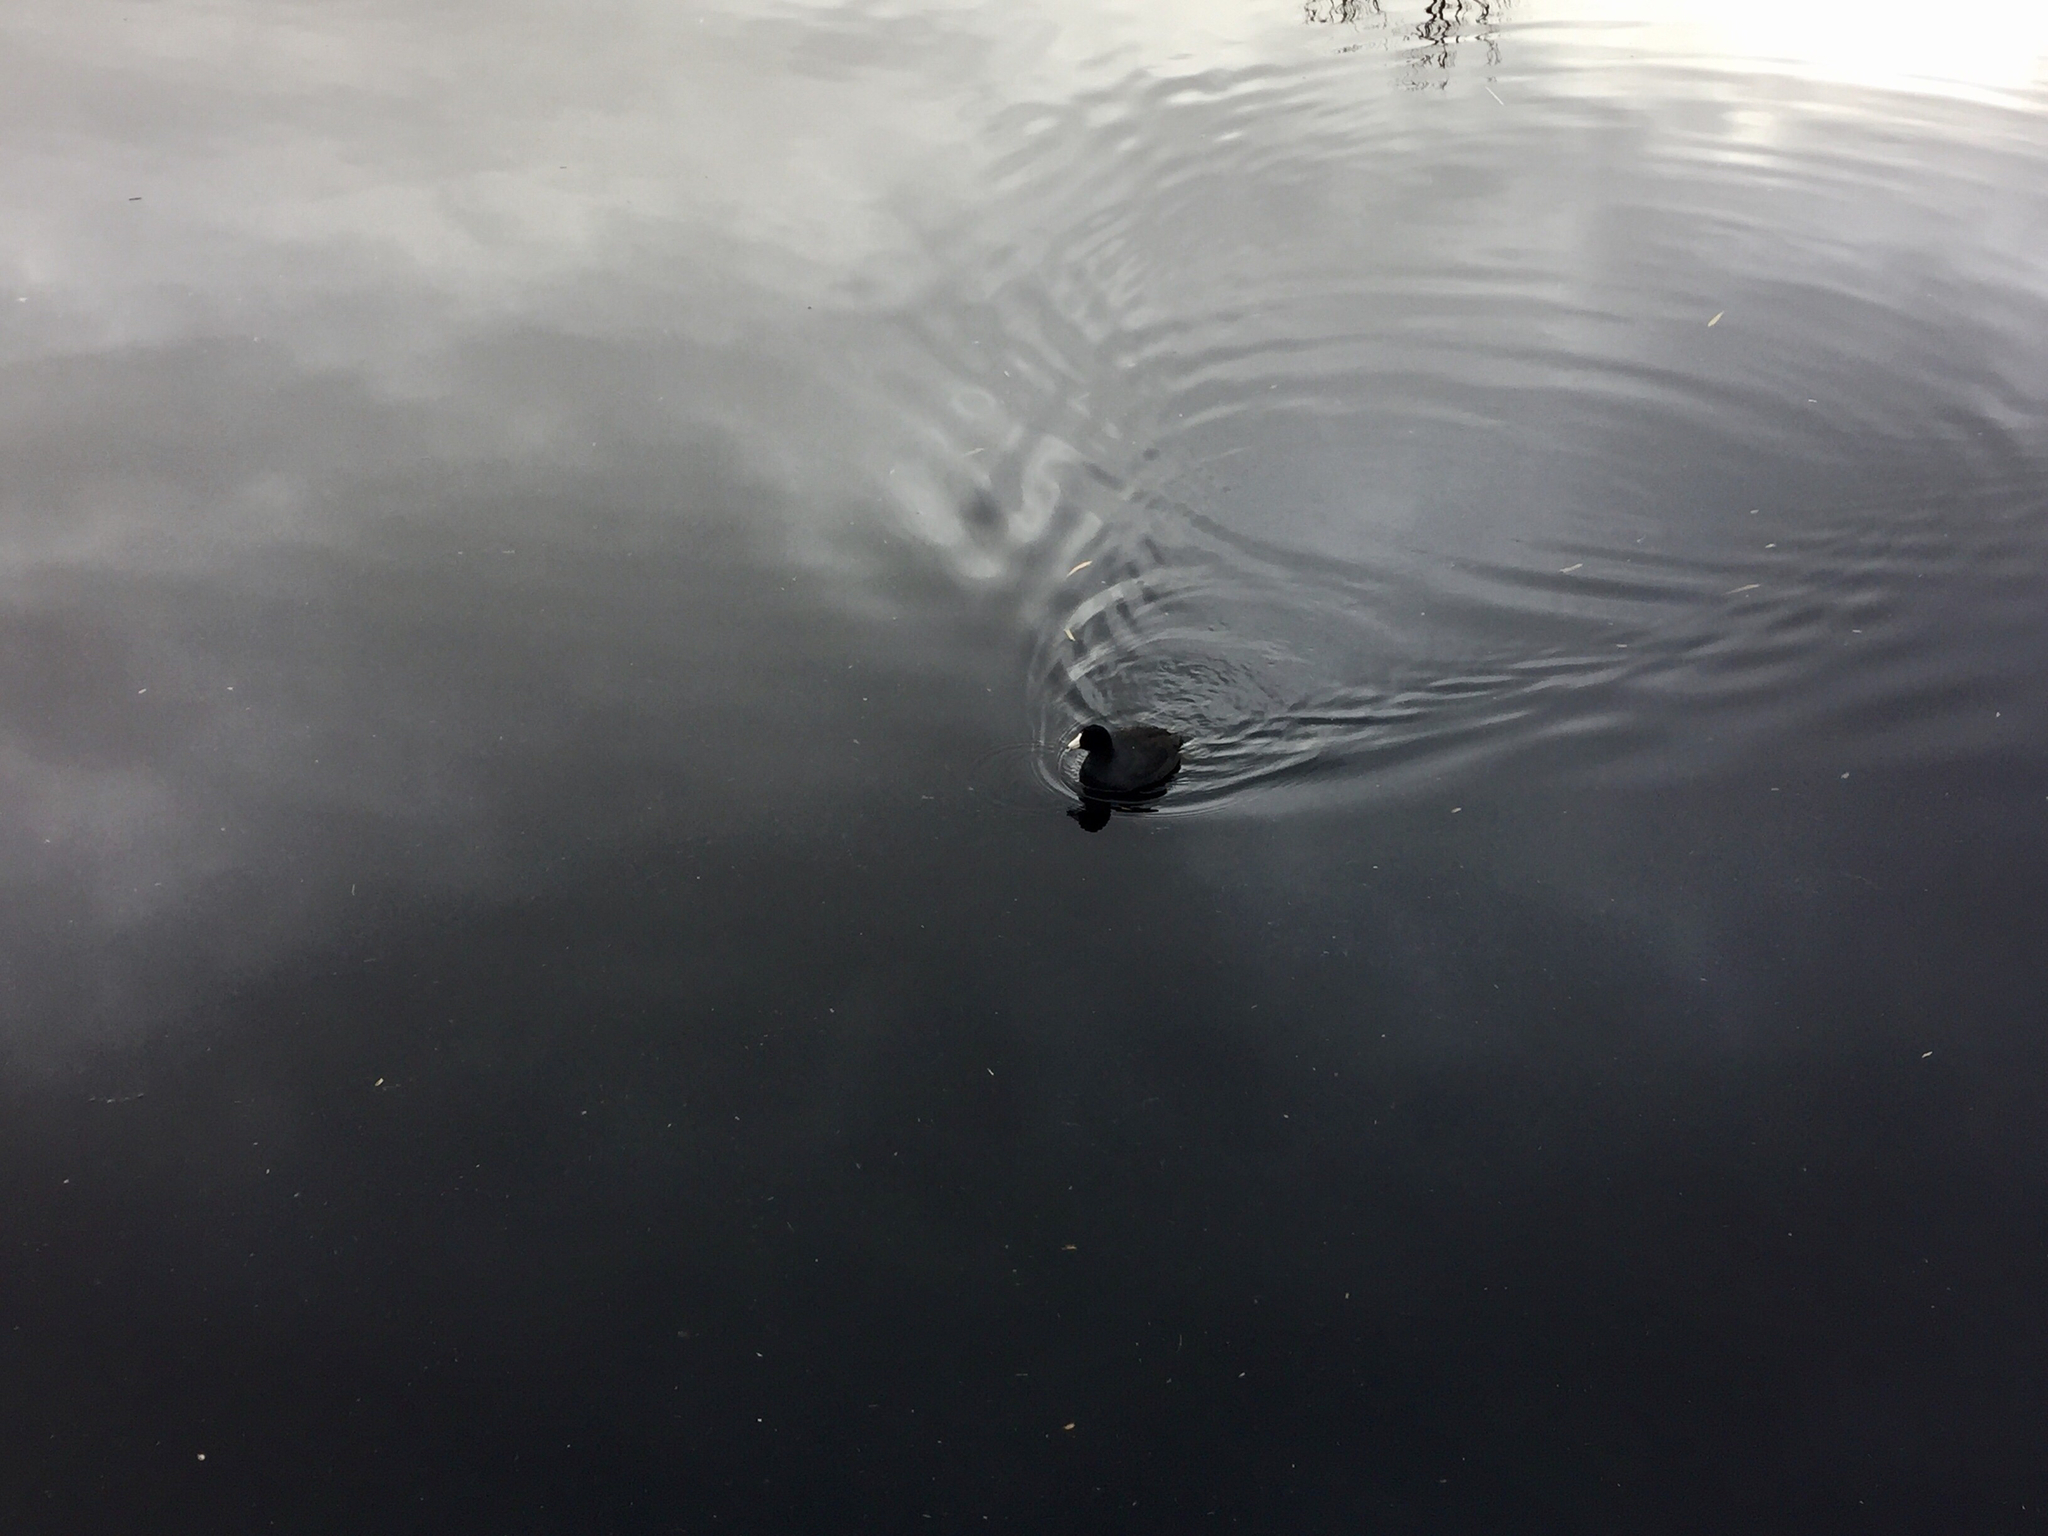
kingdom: Animalia
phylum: Chordata
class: Aves
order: Gruiformes
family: Rallidae
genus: Fulica
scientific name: Fulica americana
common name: American coot
